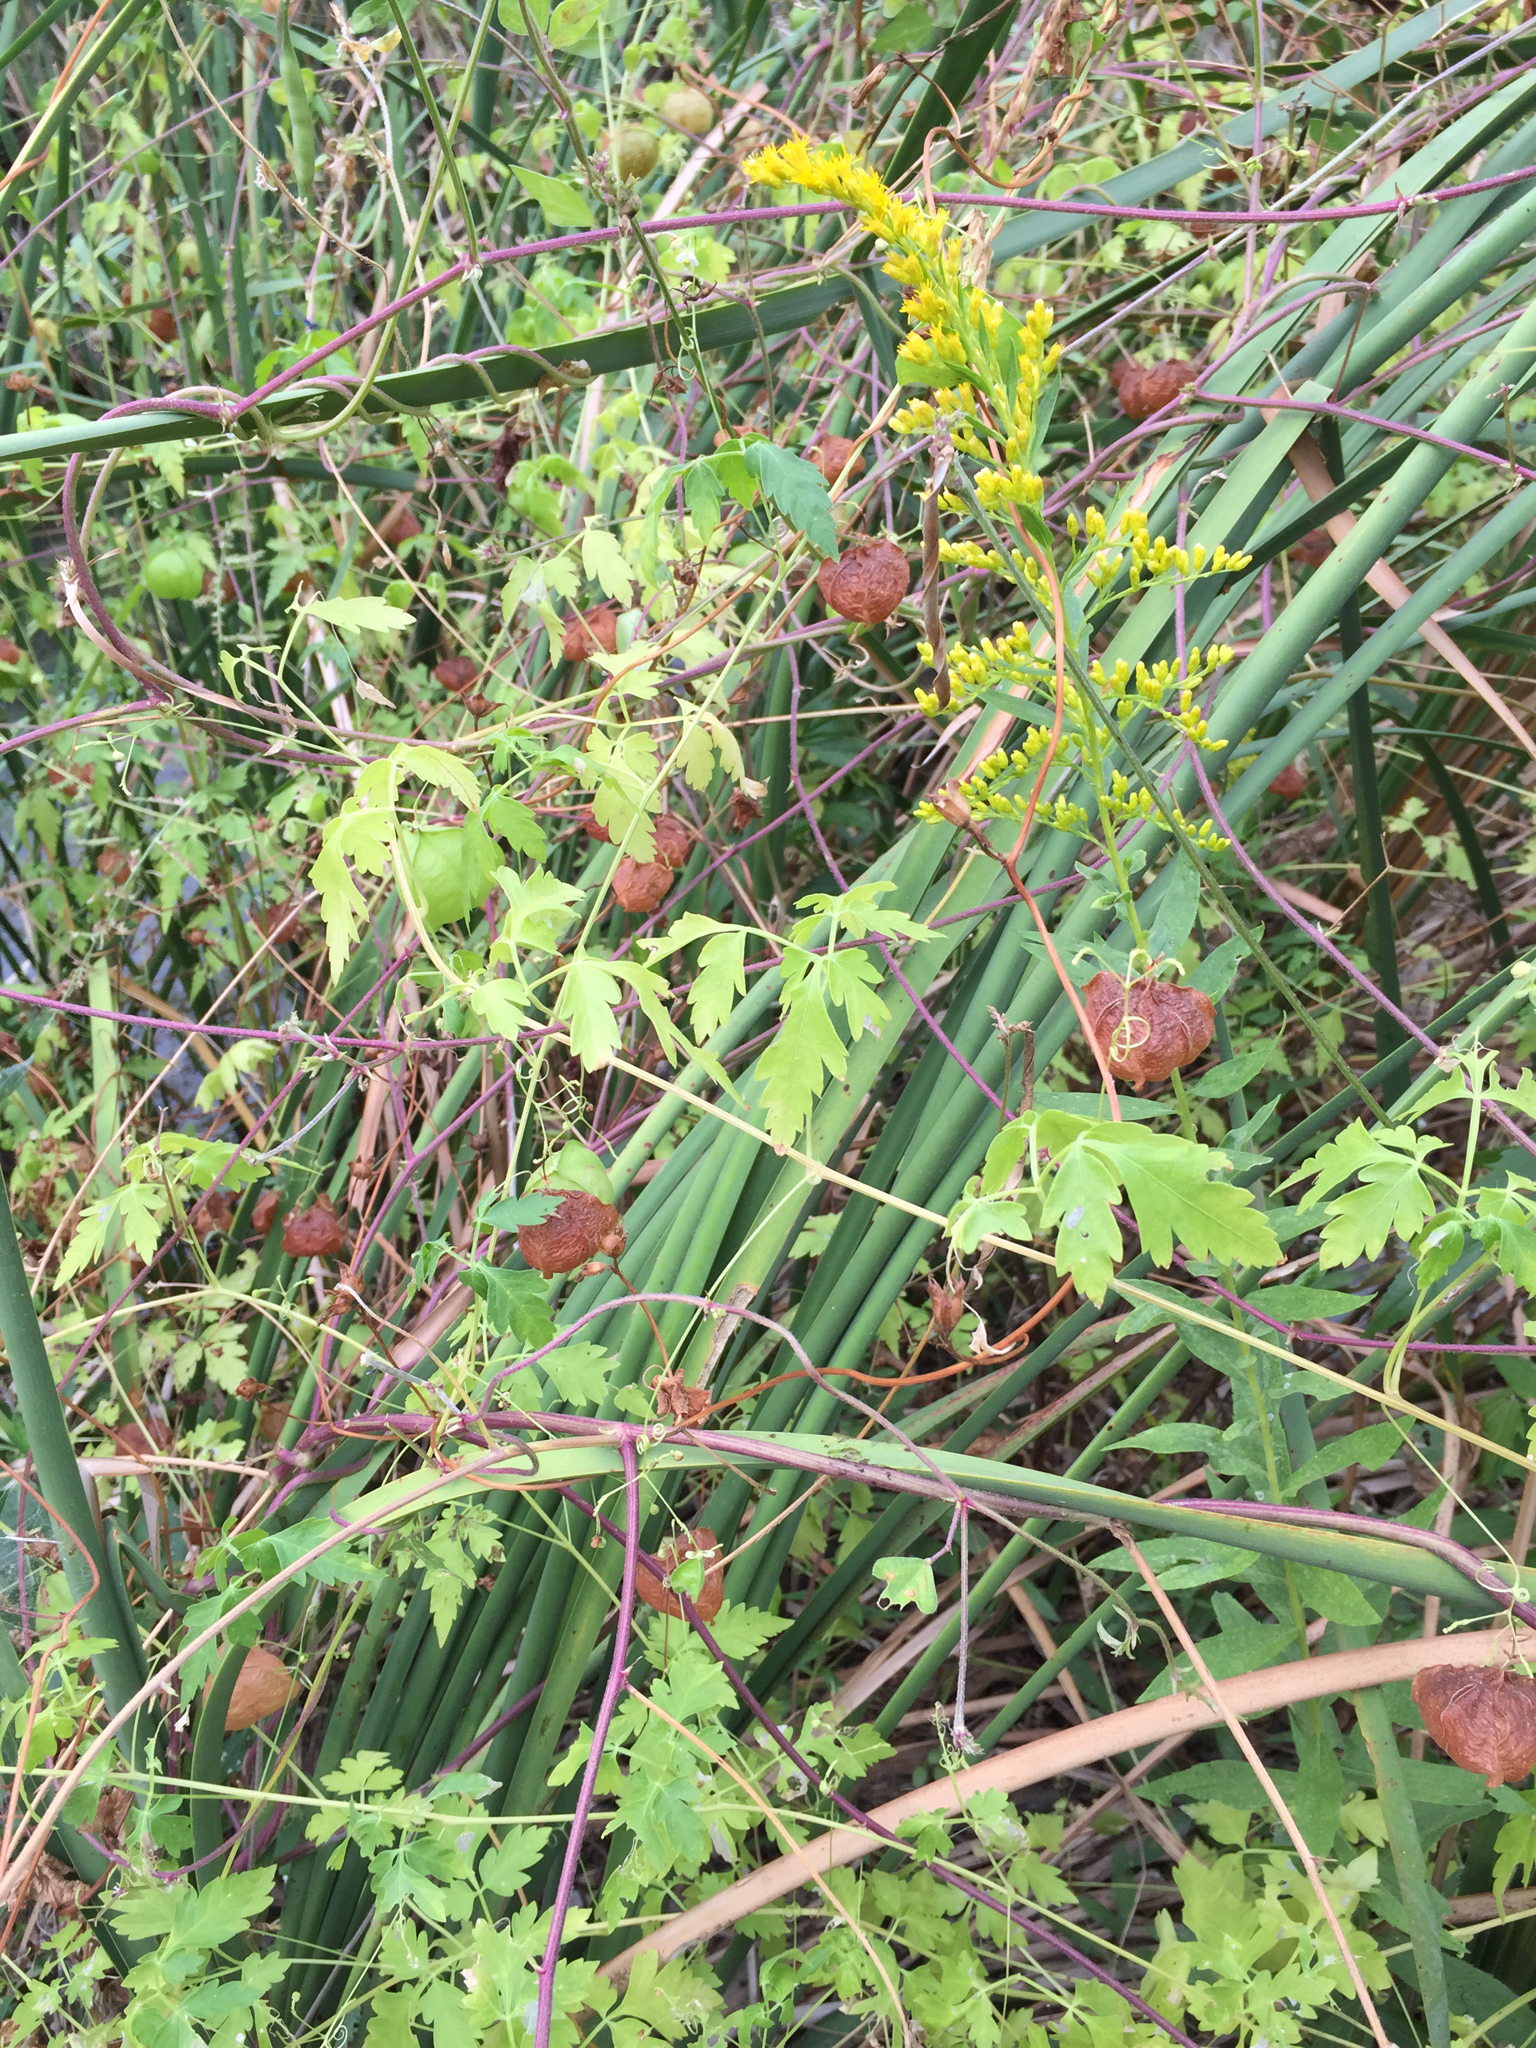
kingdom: Plantae
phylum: Tracheophyta
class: Magnoliopsida
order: Sapindales
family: Sapindaceae
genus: Cardiospermum
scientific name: Cardiospermum halicacabum
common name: Balloon vine
